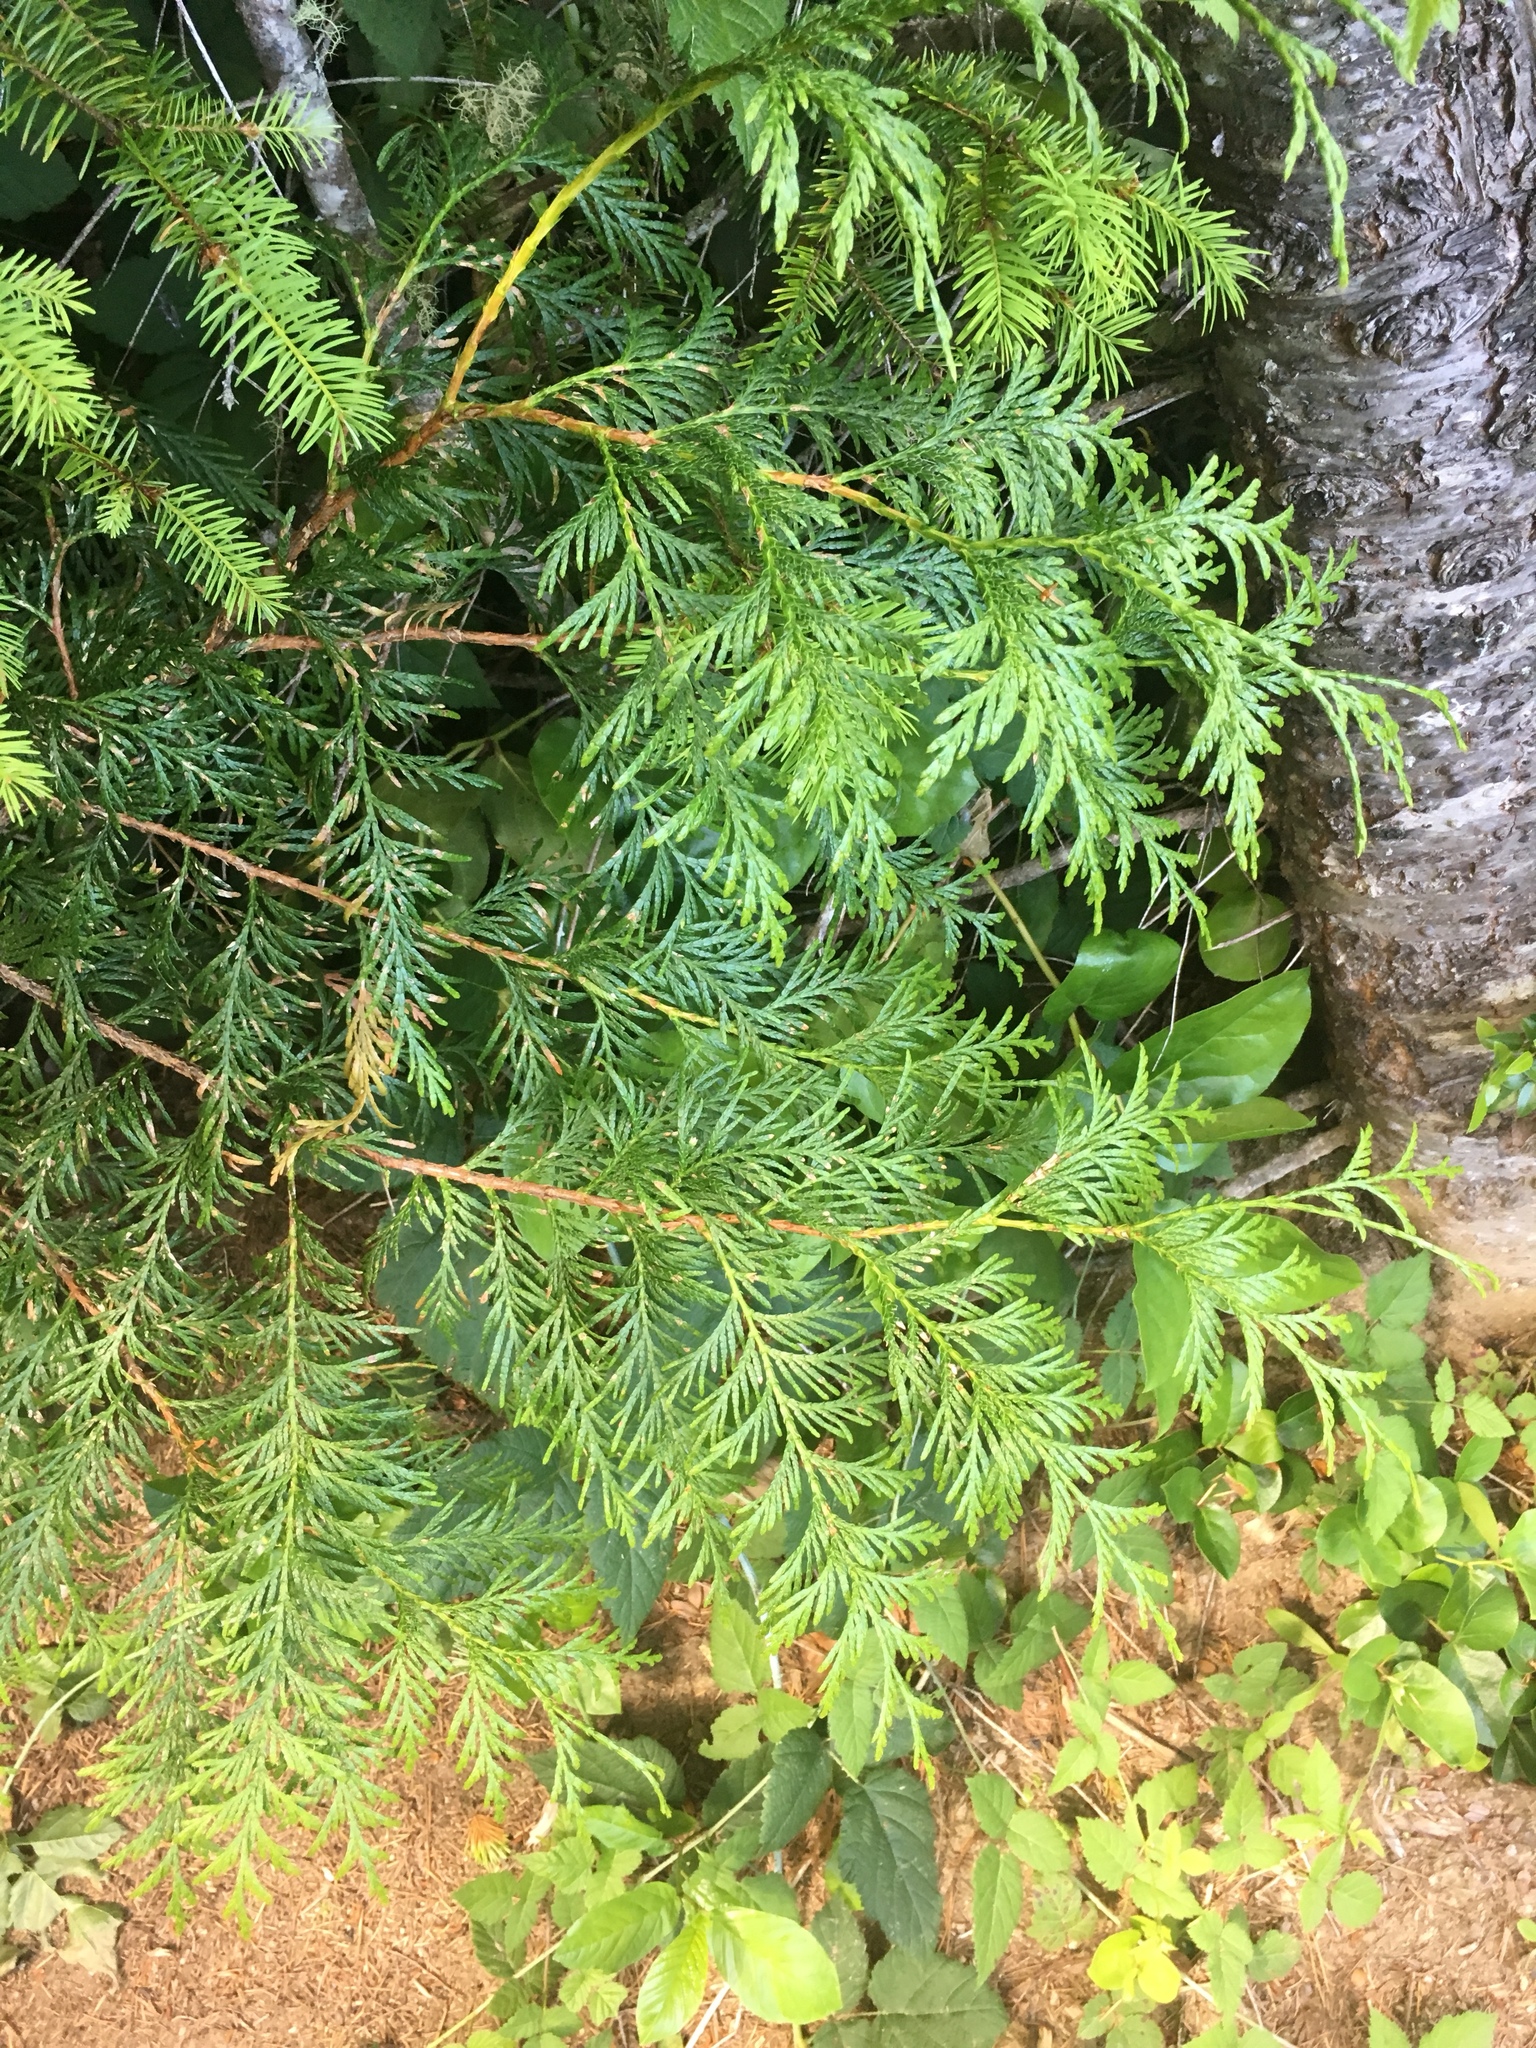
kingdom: Plantae
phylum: Tracheophyta
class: Pinopsida
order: Pinales
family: Cupressaceae
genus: Thuja
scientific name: Thuja plicata
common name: Western red-cedar
